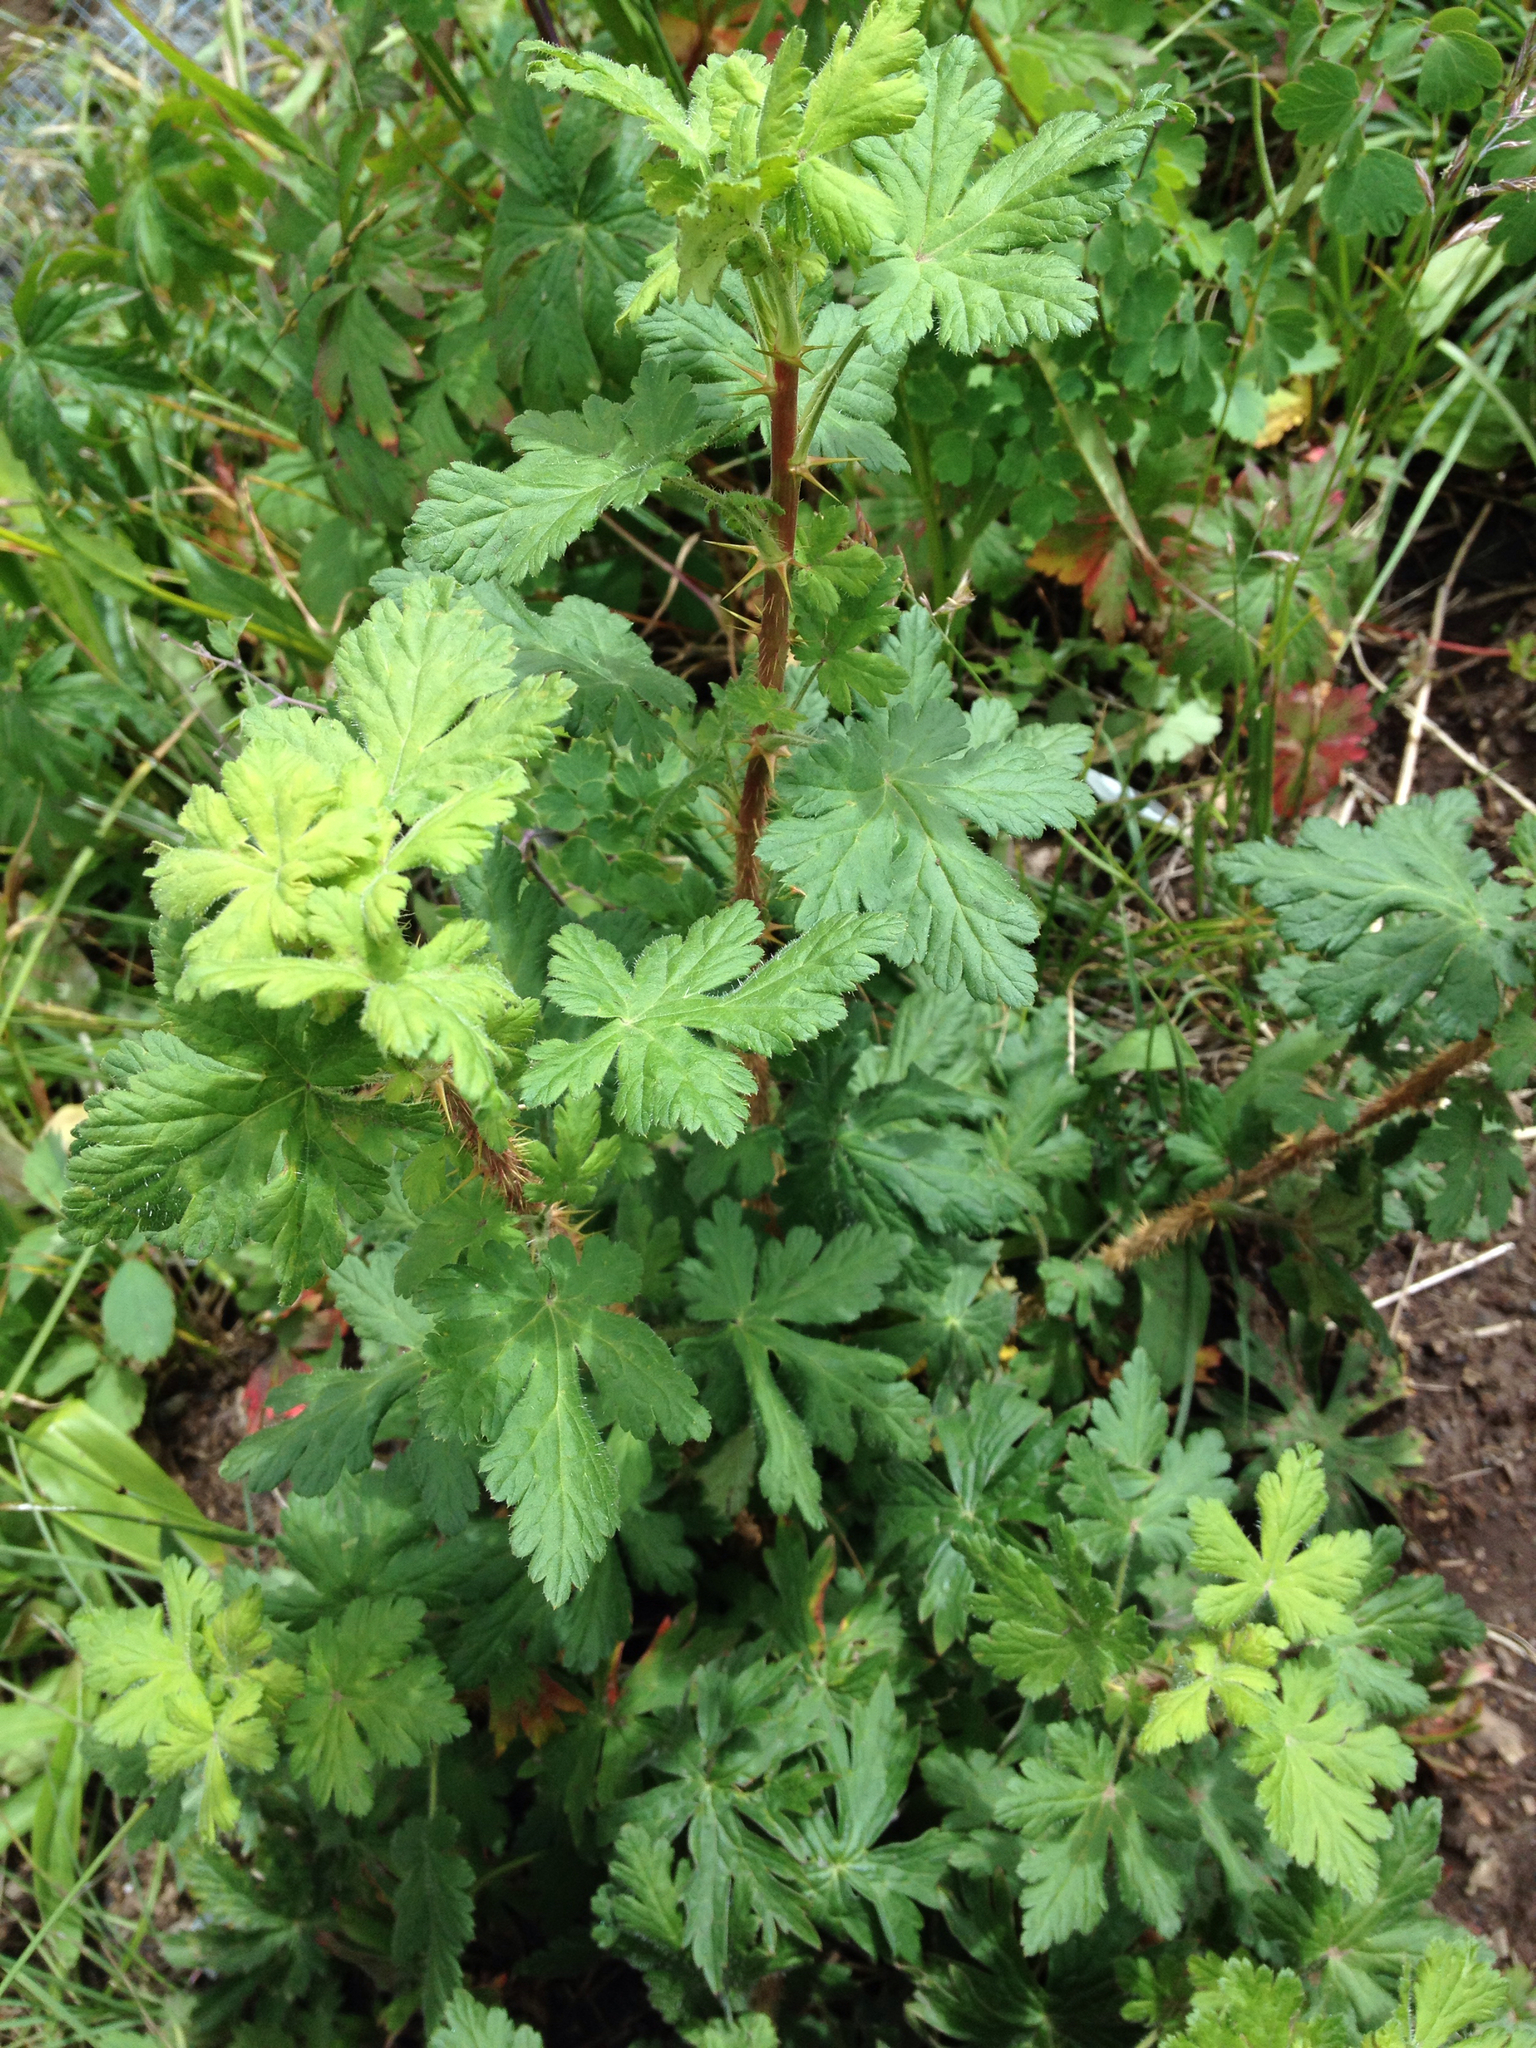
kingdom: Plantae
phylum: Tracheophyta
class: Magnoliopsida
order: Saxifragales
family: Grossulariaceae
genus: Ribes
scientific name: Ribes montigenum
